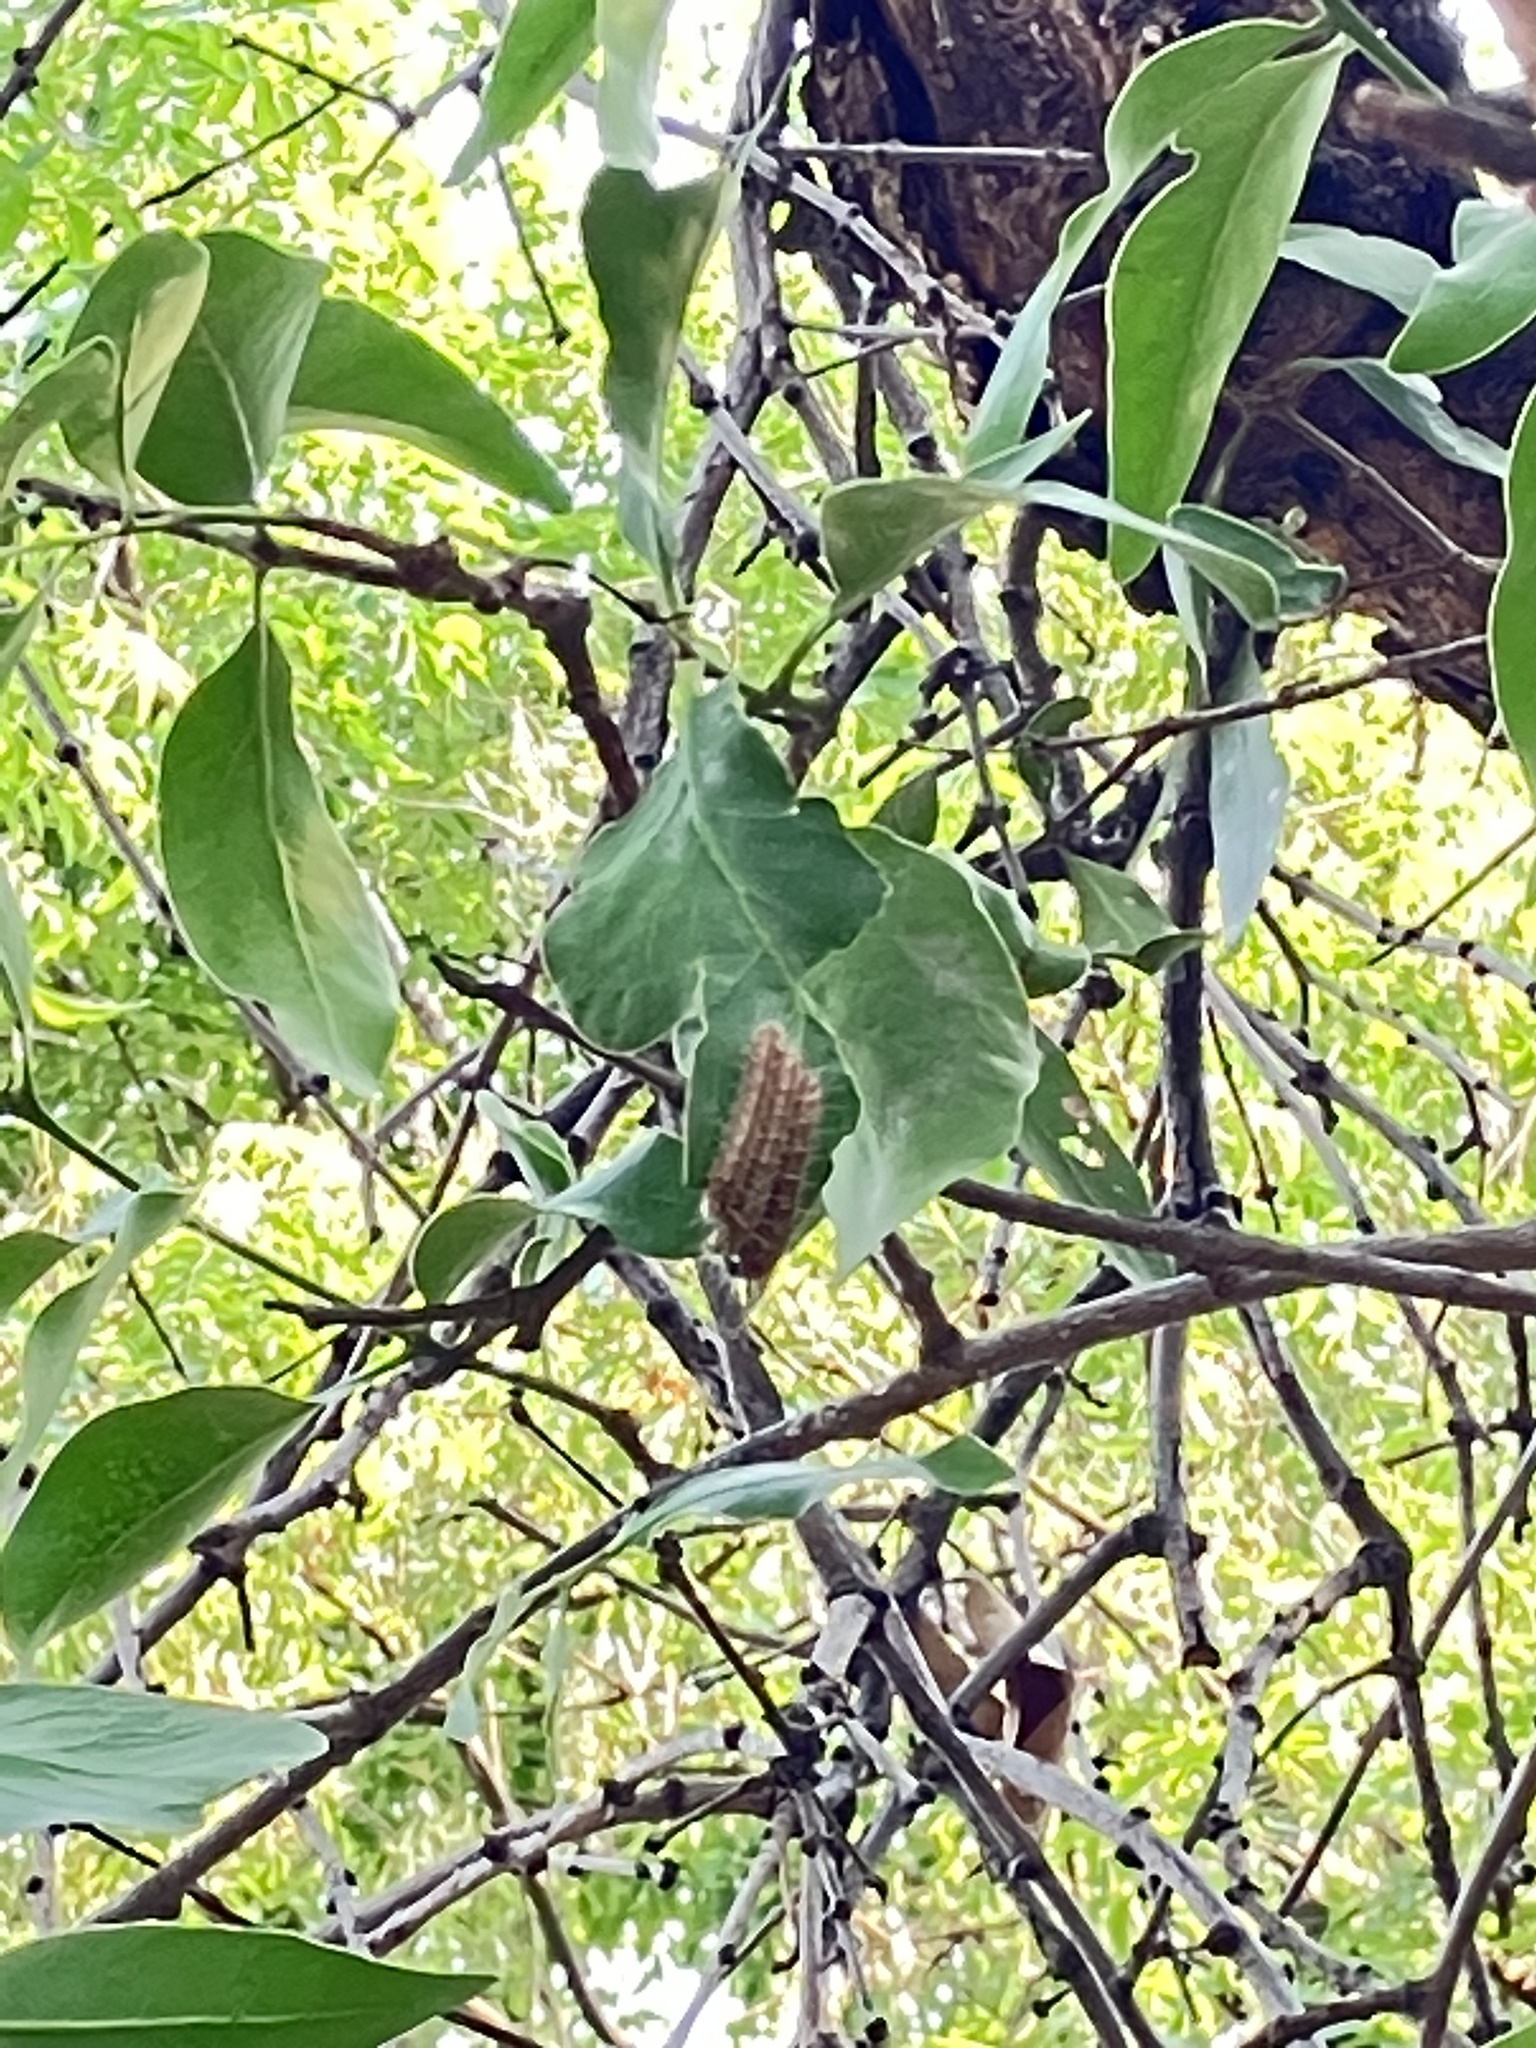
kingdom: Animalia
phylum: Arthropoda
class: Insecta
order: Lepidoptera
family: Pieridae
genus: Delias
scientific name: Delias eucharis
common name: Common jezebel
